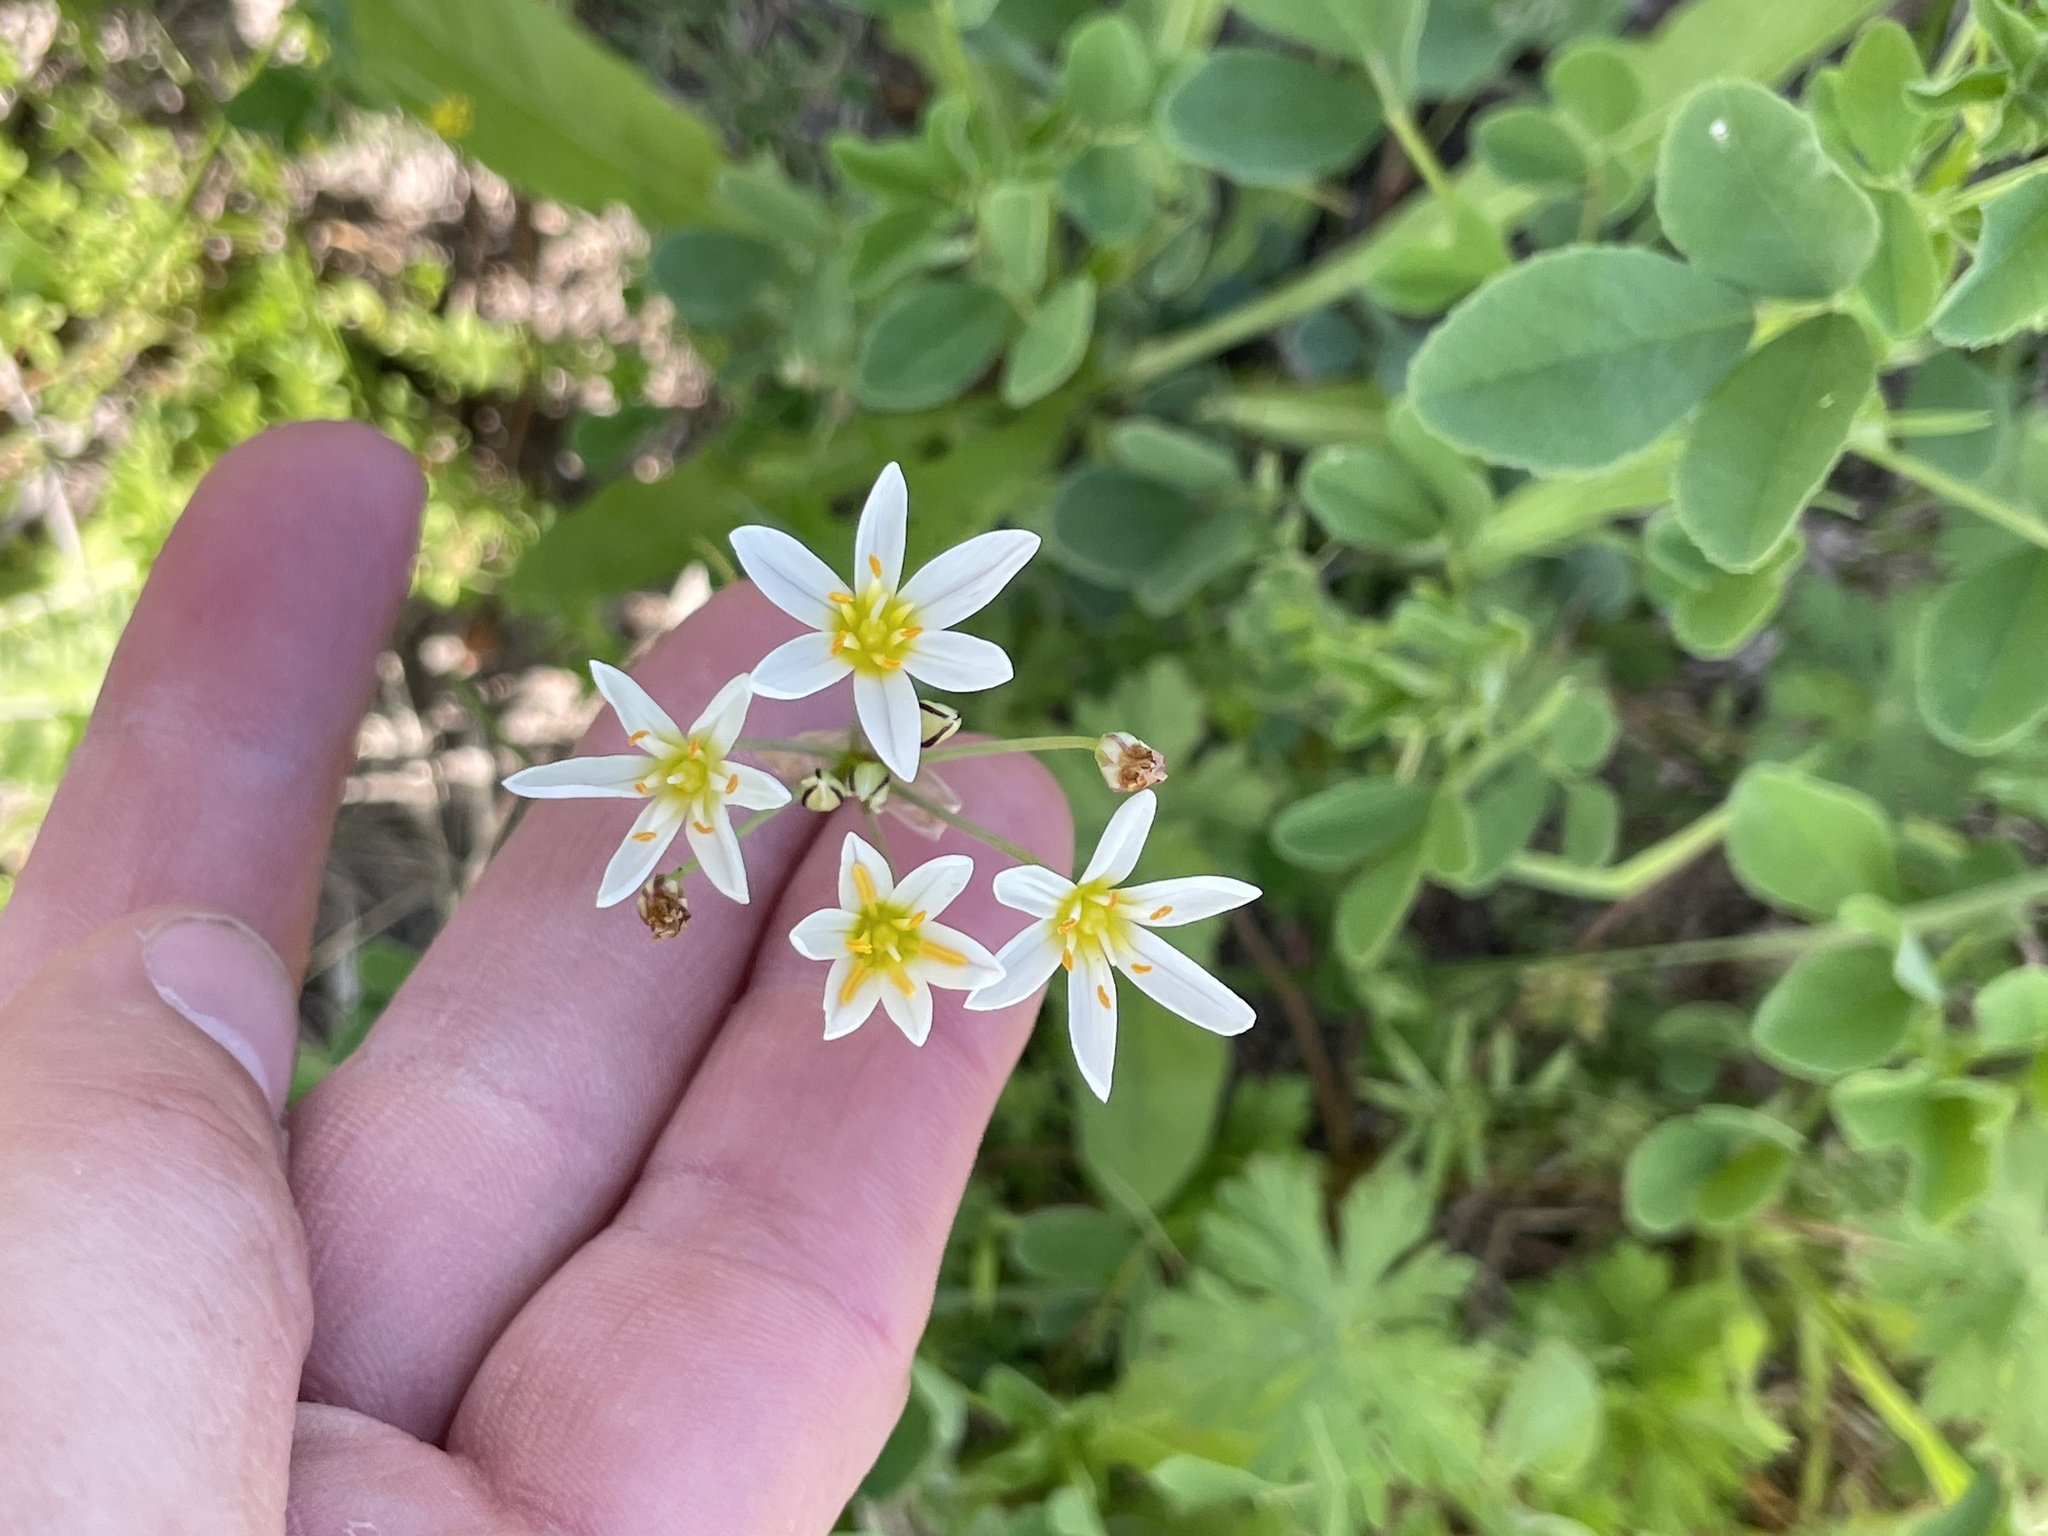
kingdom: Plantae
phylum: Tracheophyta
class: Liliopsida
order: Asparagales
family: Amaryllidaceae
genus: Nothoscordum
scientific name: Nothoscordum bivalve
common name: Crow-poison
